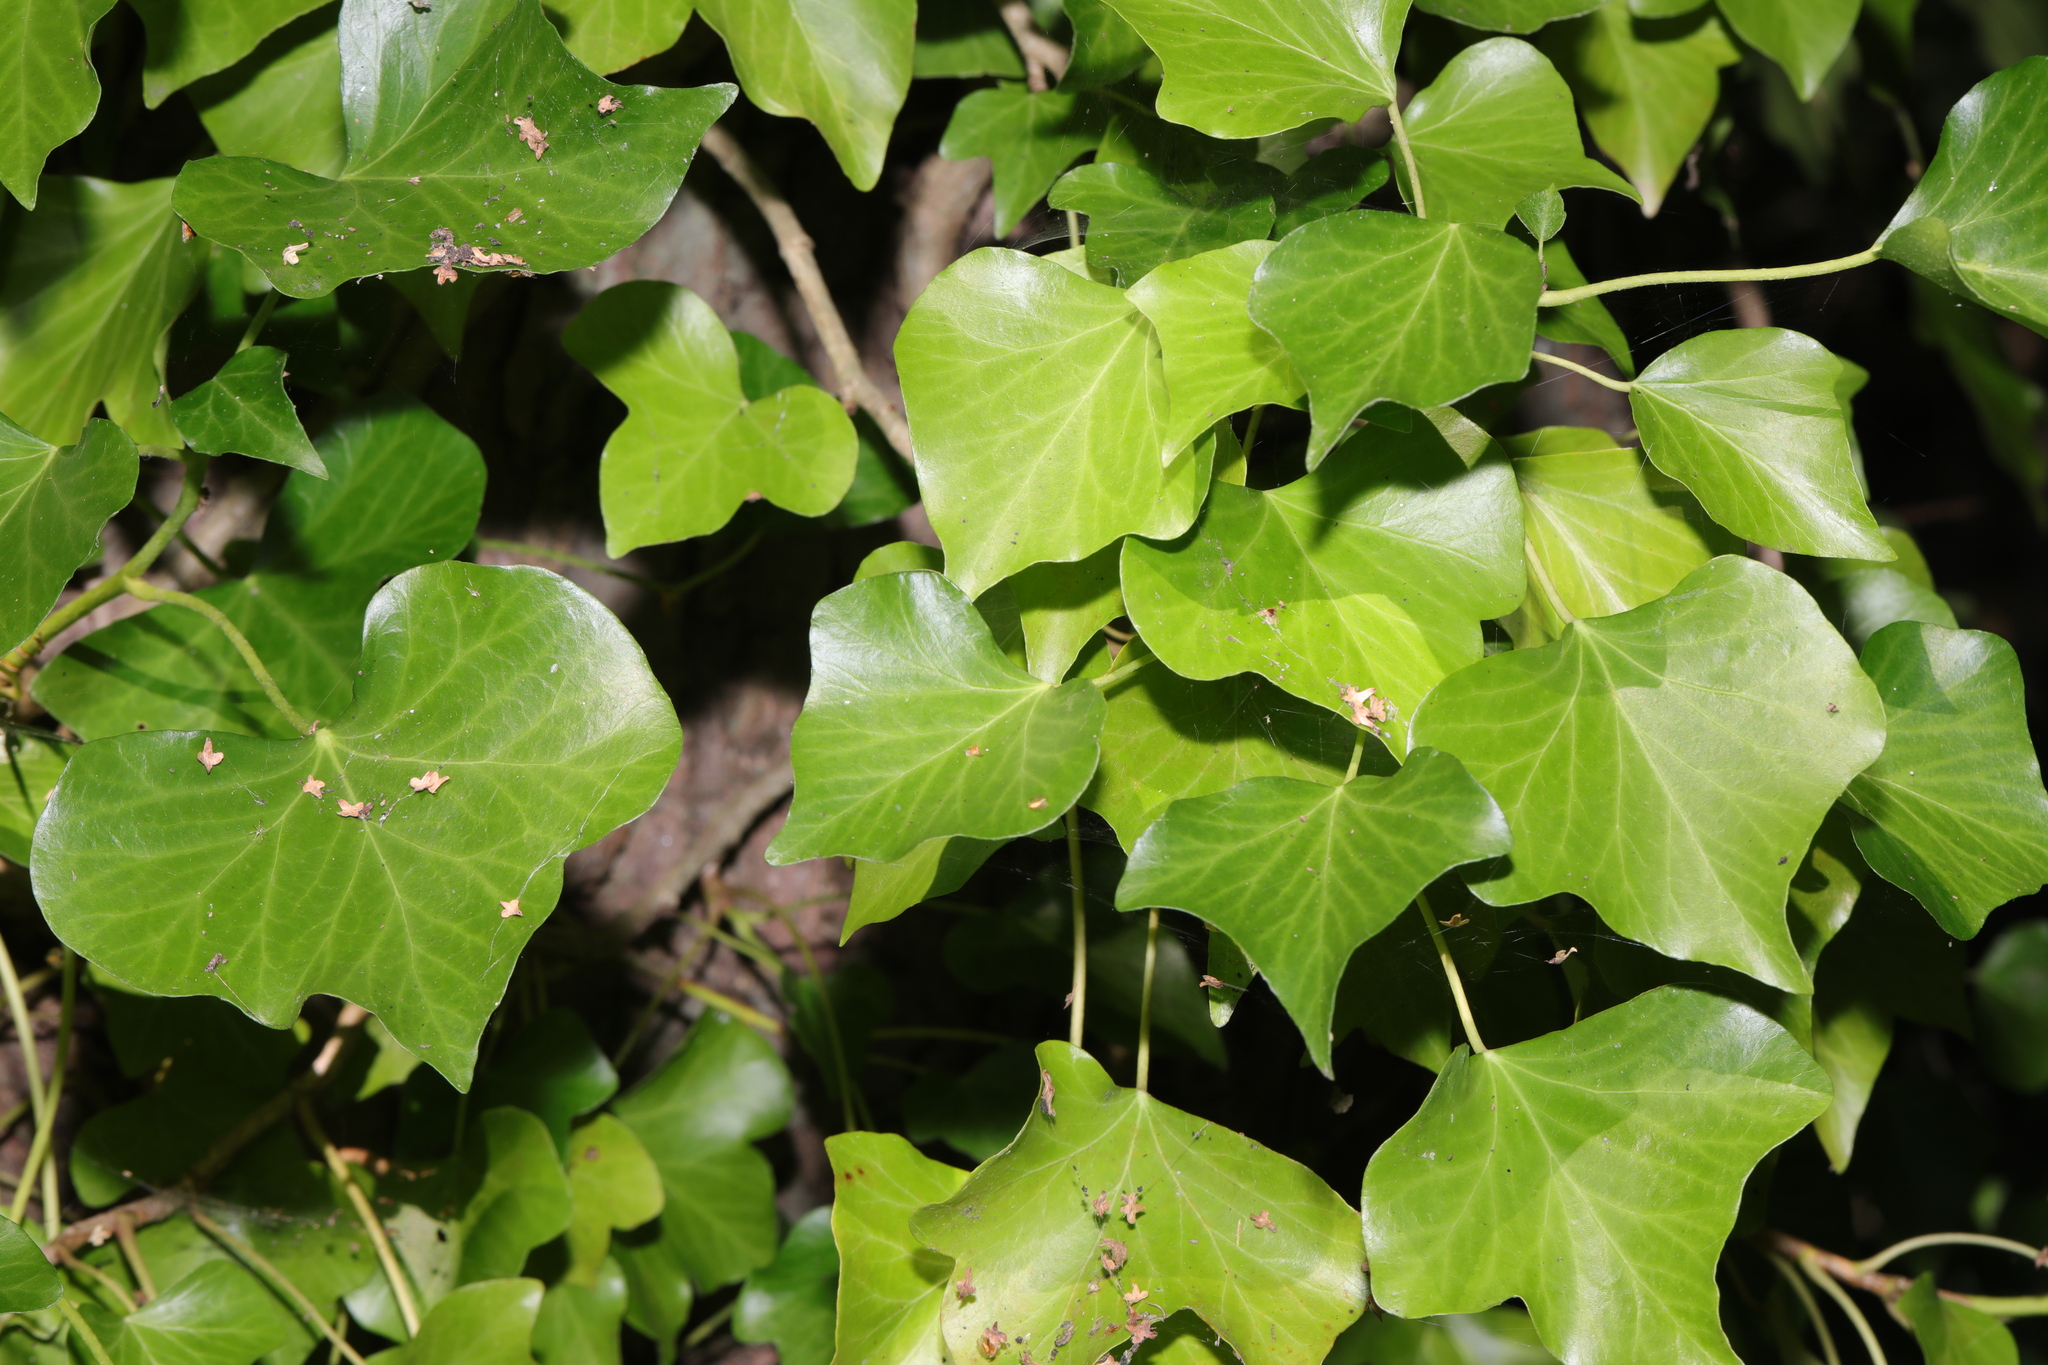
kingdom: Plantae
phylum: Tracheophyta
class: Magnoliopsida
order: Apiales
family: Araliaceae
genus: Hedera
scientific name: Hedera helix
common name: Ivy
